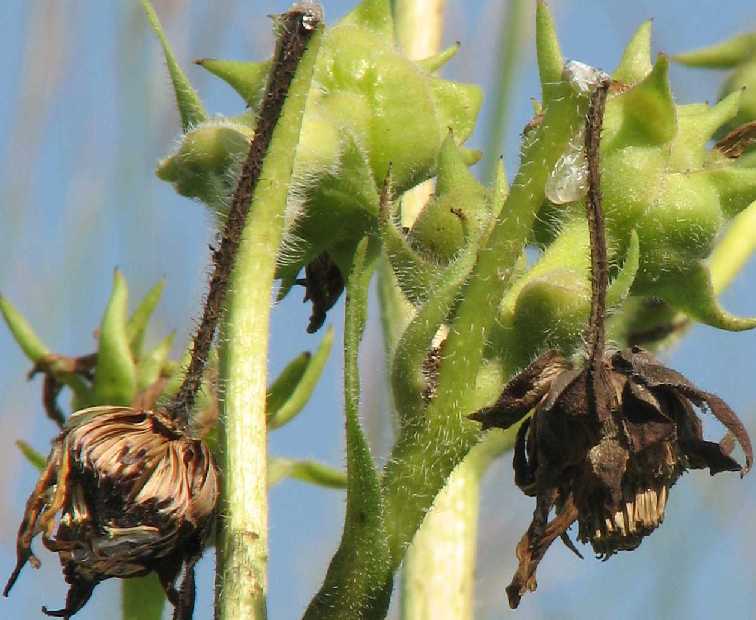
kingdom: Plantae
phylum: Tracheophyta
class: Magnoliopsida
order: Asterales
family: Asteraceae
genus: Silphium
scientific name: Silphium laciniatum
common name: Polarplant
